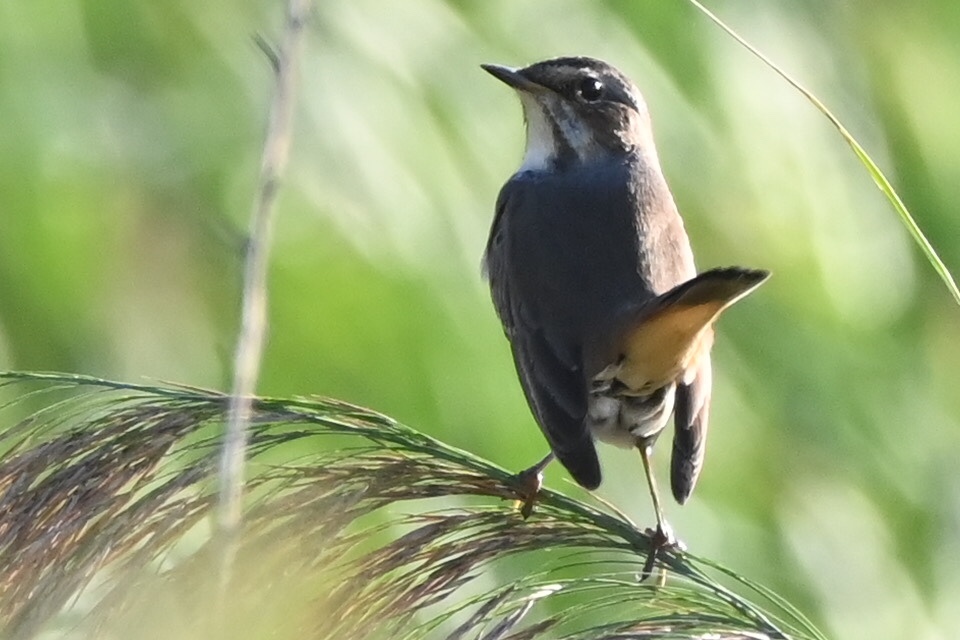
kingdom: Animalia
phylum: Chordata
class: Aves
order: Passeriformes
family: Muscicapidae
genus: Luscinia
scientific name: Luscinia svecica
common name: Bluethroat
